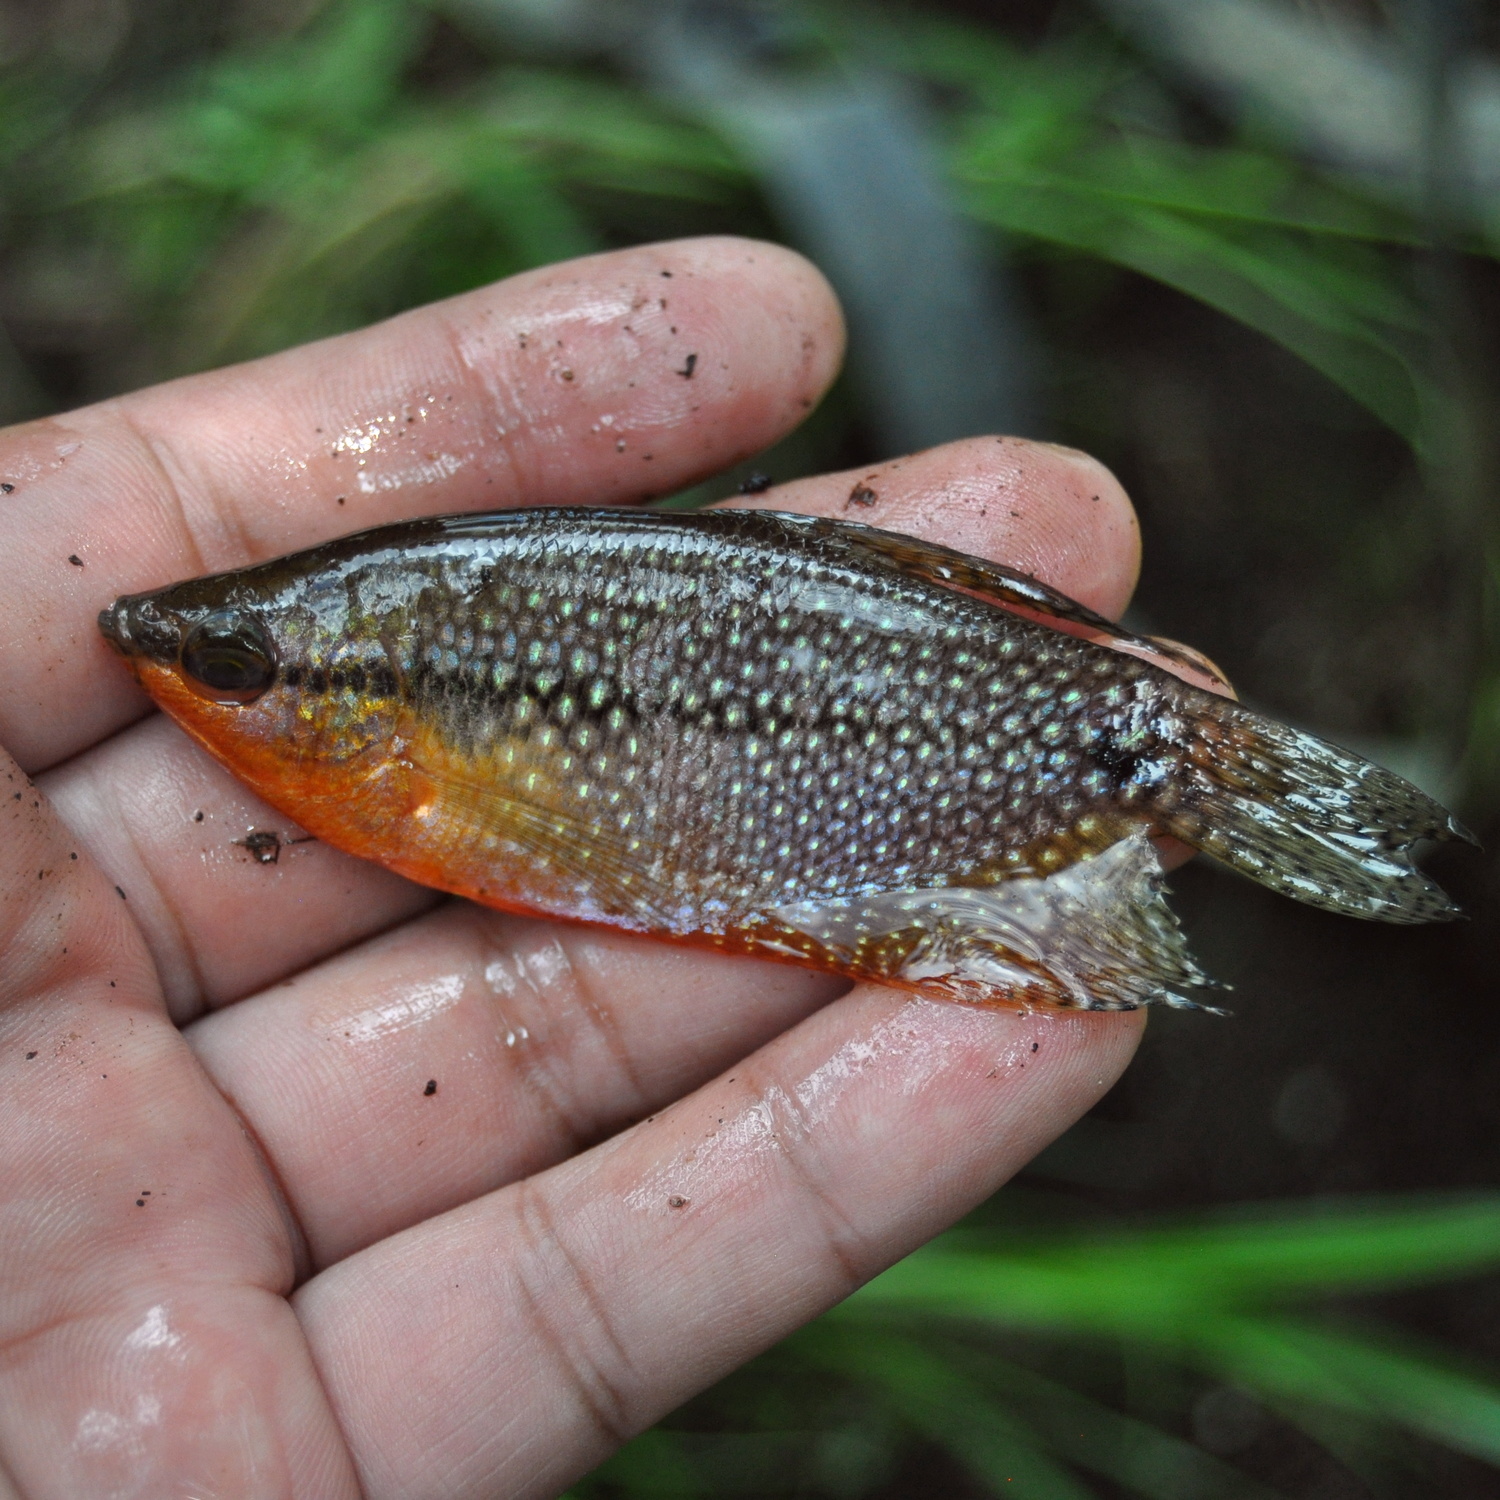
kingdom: Animalia
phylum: Chordata
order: Perciformes
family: Osphronemidae
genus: Trichopodus
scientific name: Trichopodus leerii
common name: Pearl gourami
